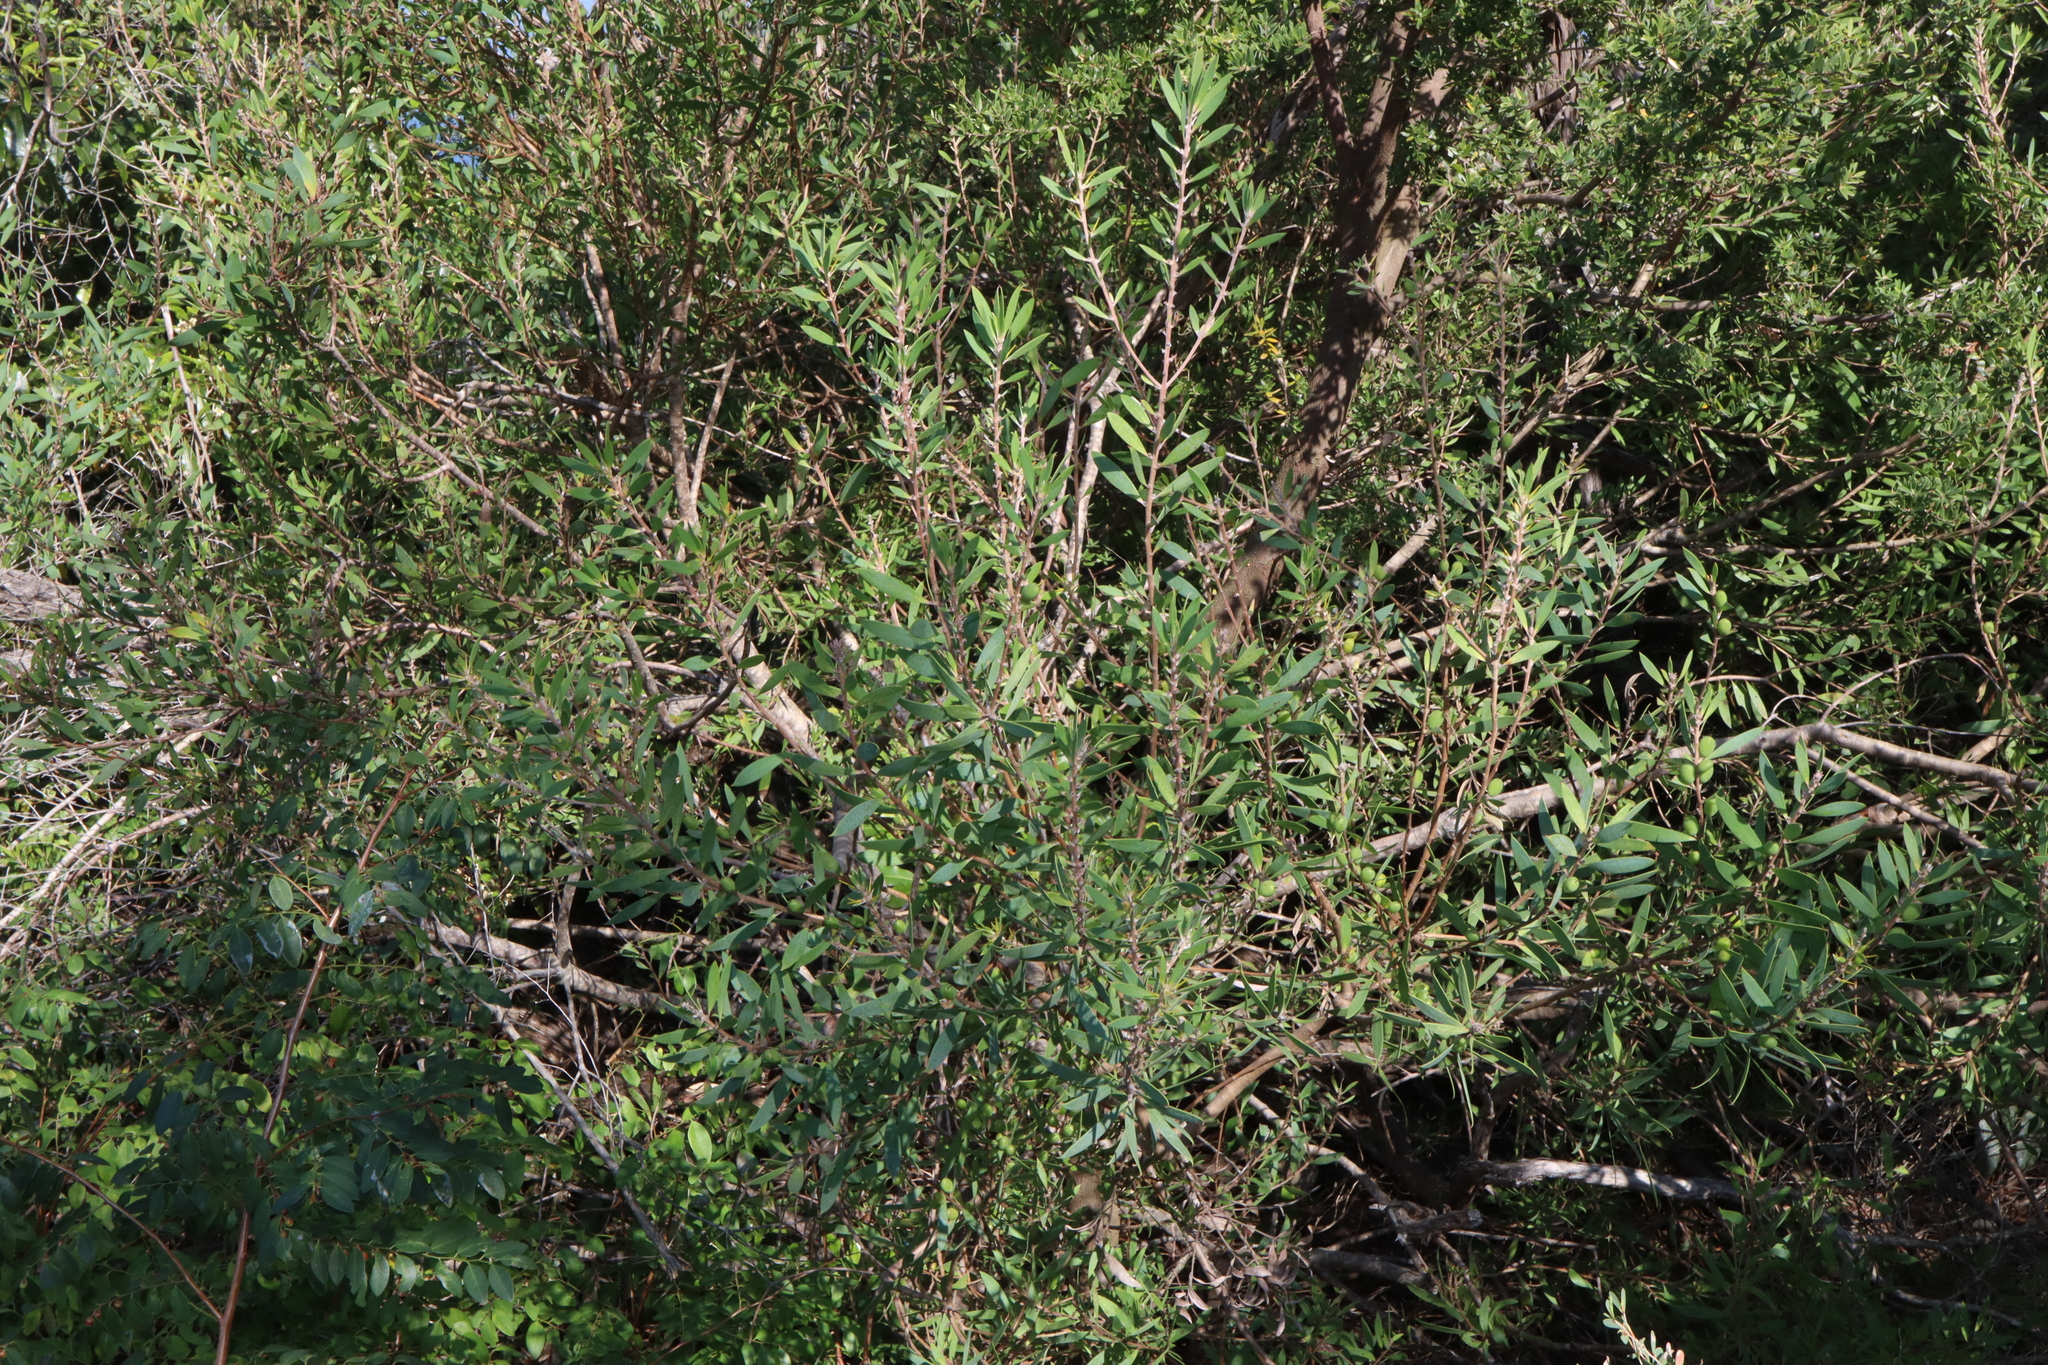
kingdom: Plantae
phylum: Tracheophyta
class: Magnoliopsida
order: Proteales
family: Proteaceae
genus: Persoonia
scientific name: Persoonia lanceolata
